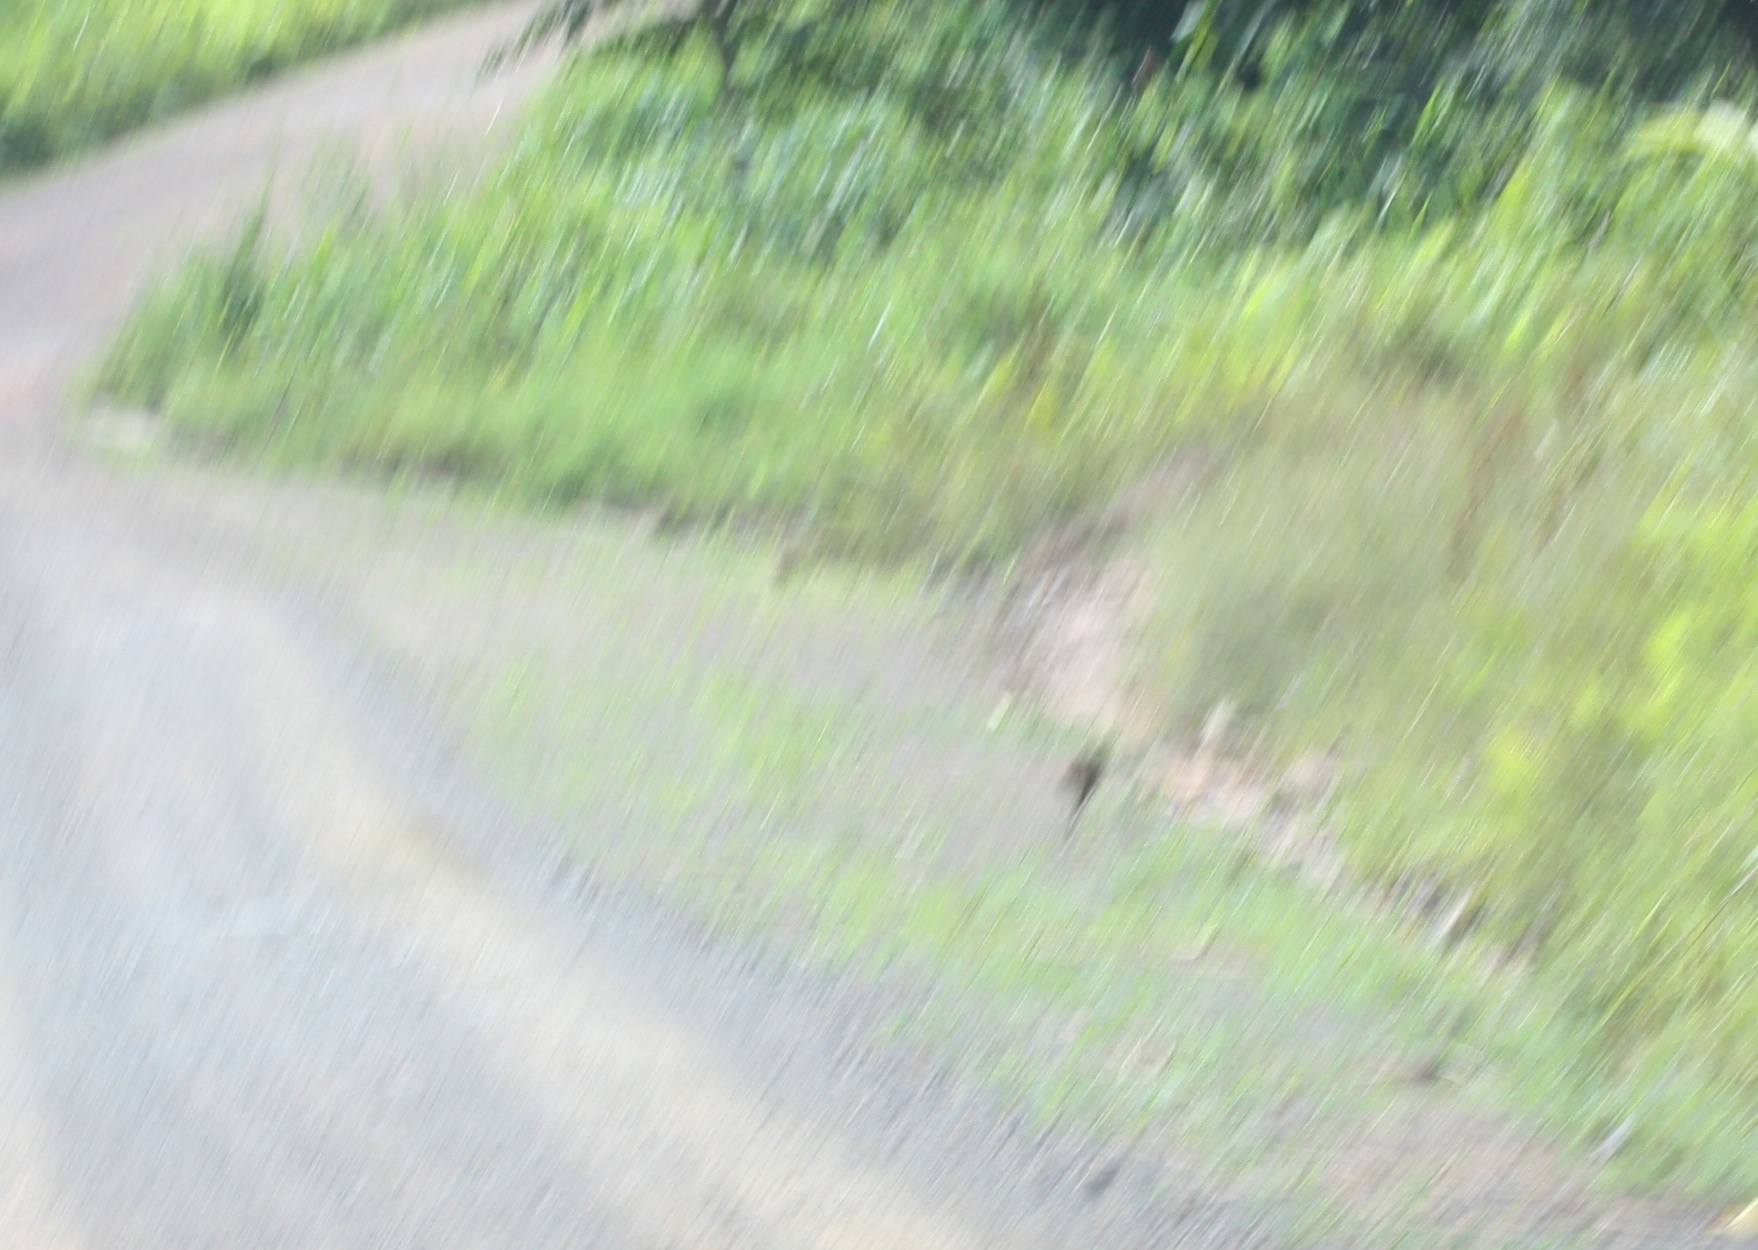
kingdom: Animalia
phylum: Chordata
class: Mammalia
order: Artiodactyla
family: Tragulidae
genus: Tragulus
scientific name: Tragulus kanchil
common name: Lesser mouse-deer
